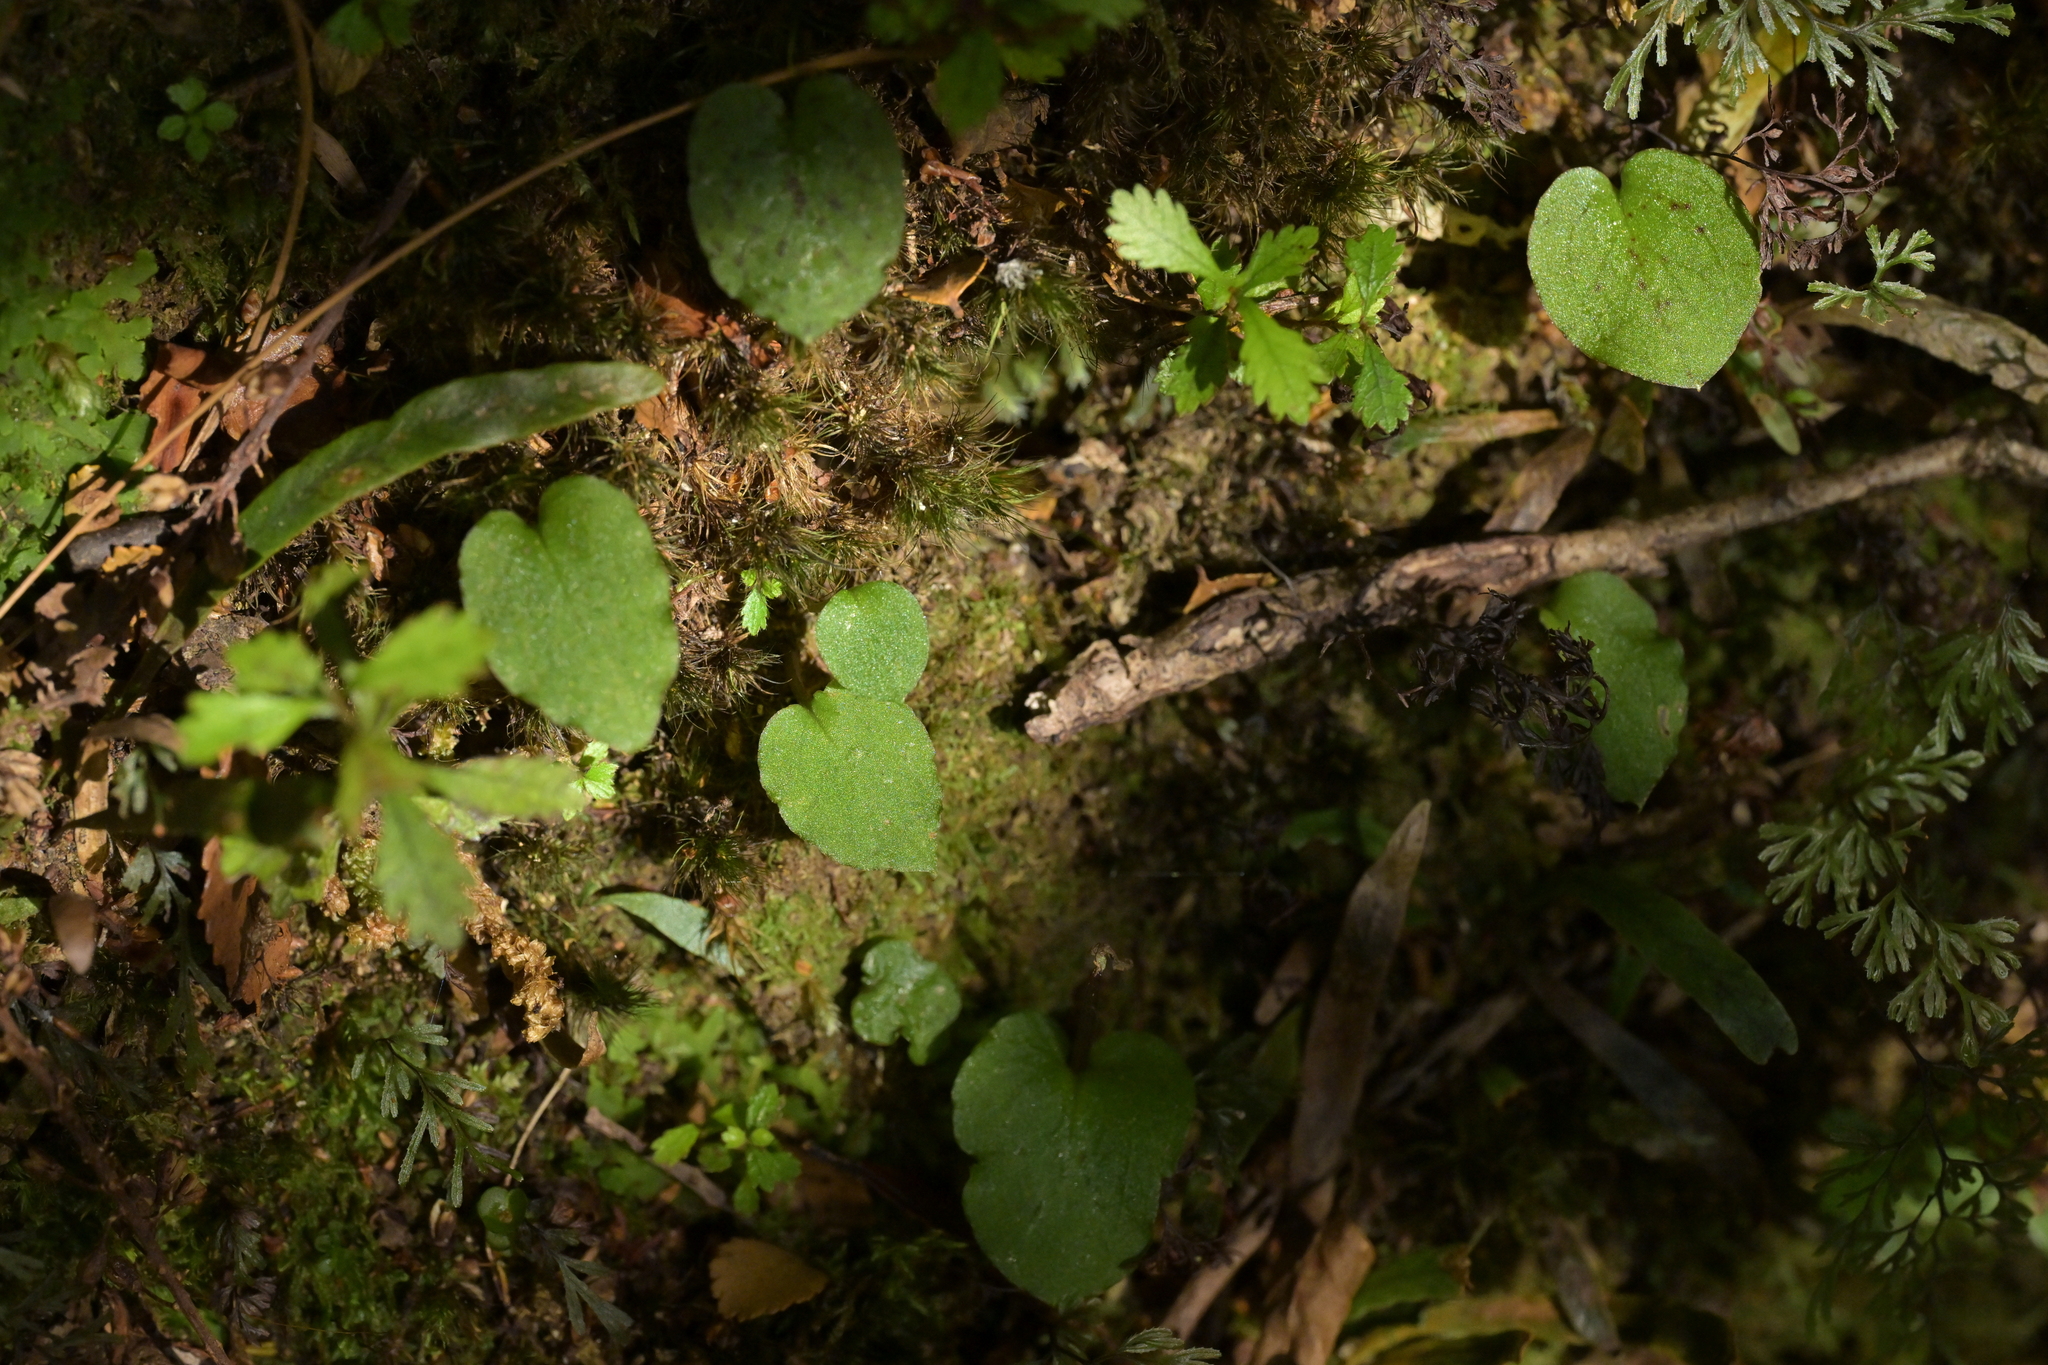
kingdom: Plantae
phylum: Tracheophyta
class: Liliopsida
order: Asparagales
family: Orchidaceae
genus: Corybas
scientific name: Corybas oblongus
